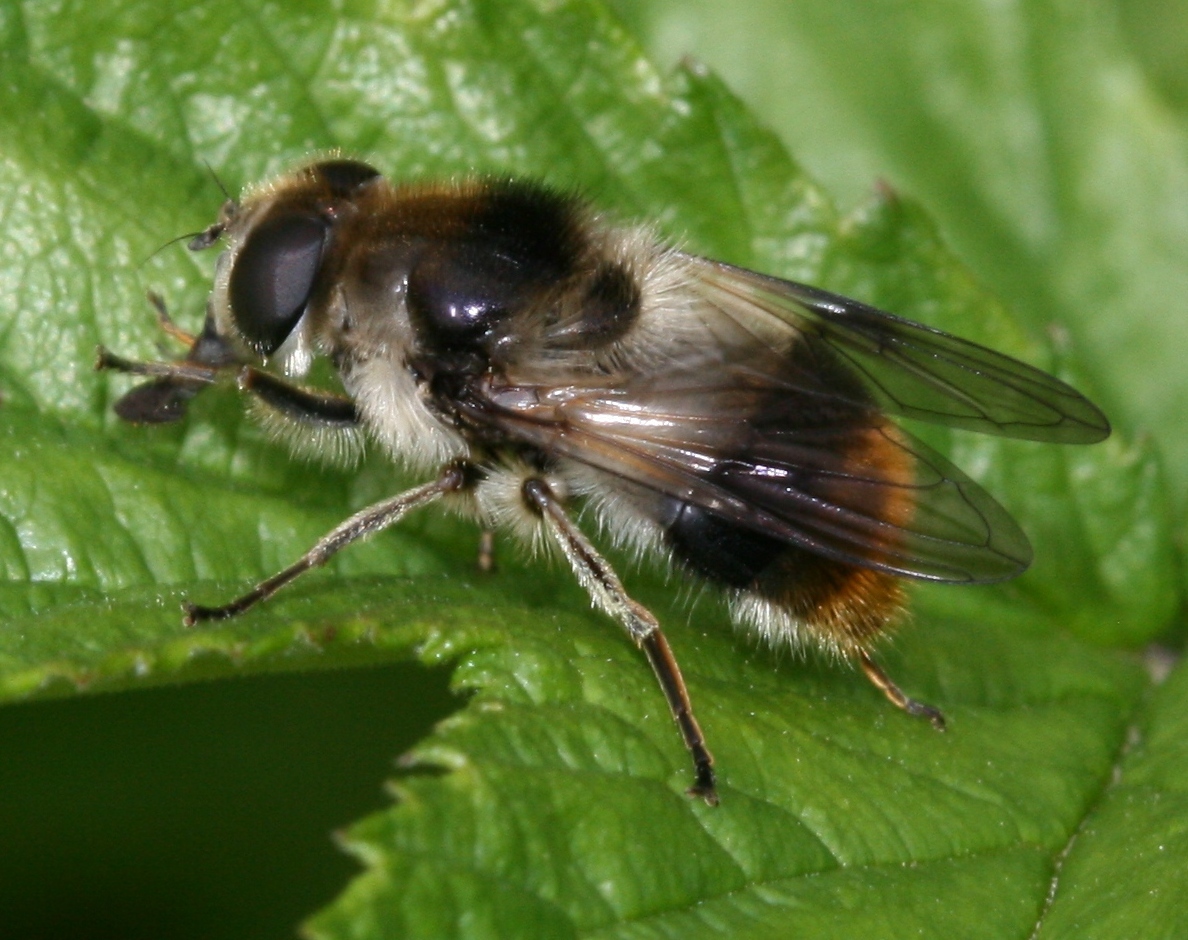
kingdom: Animalia
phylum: Arthropoda
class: Insecta
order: Diptera
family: Syrphidae
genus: Cheilosia
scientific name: Cheilosia illustrata
